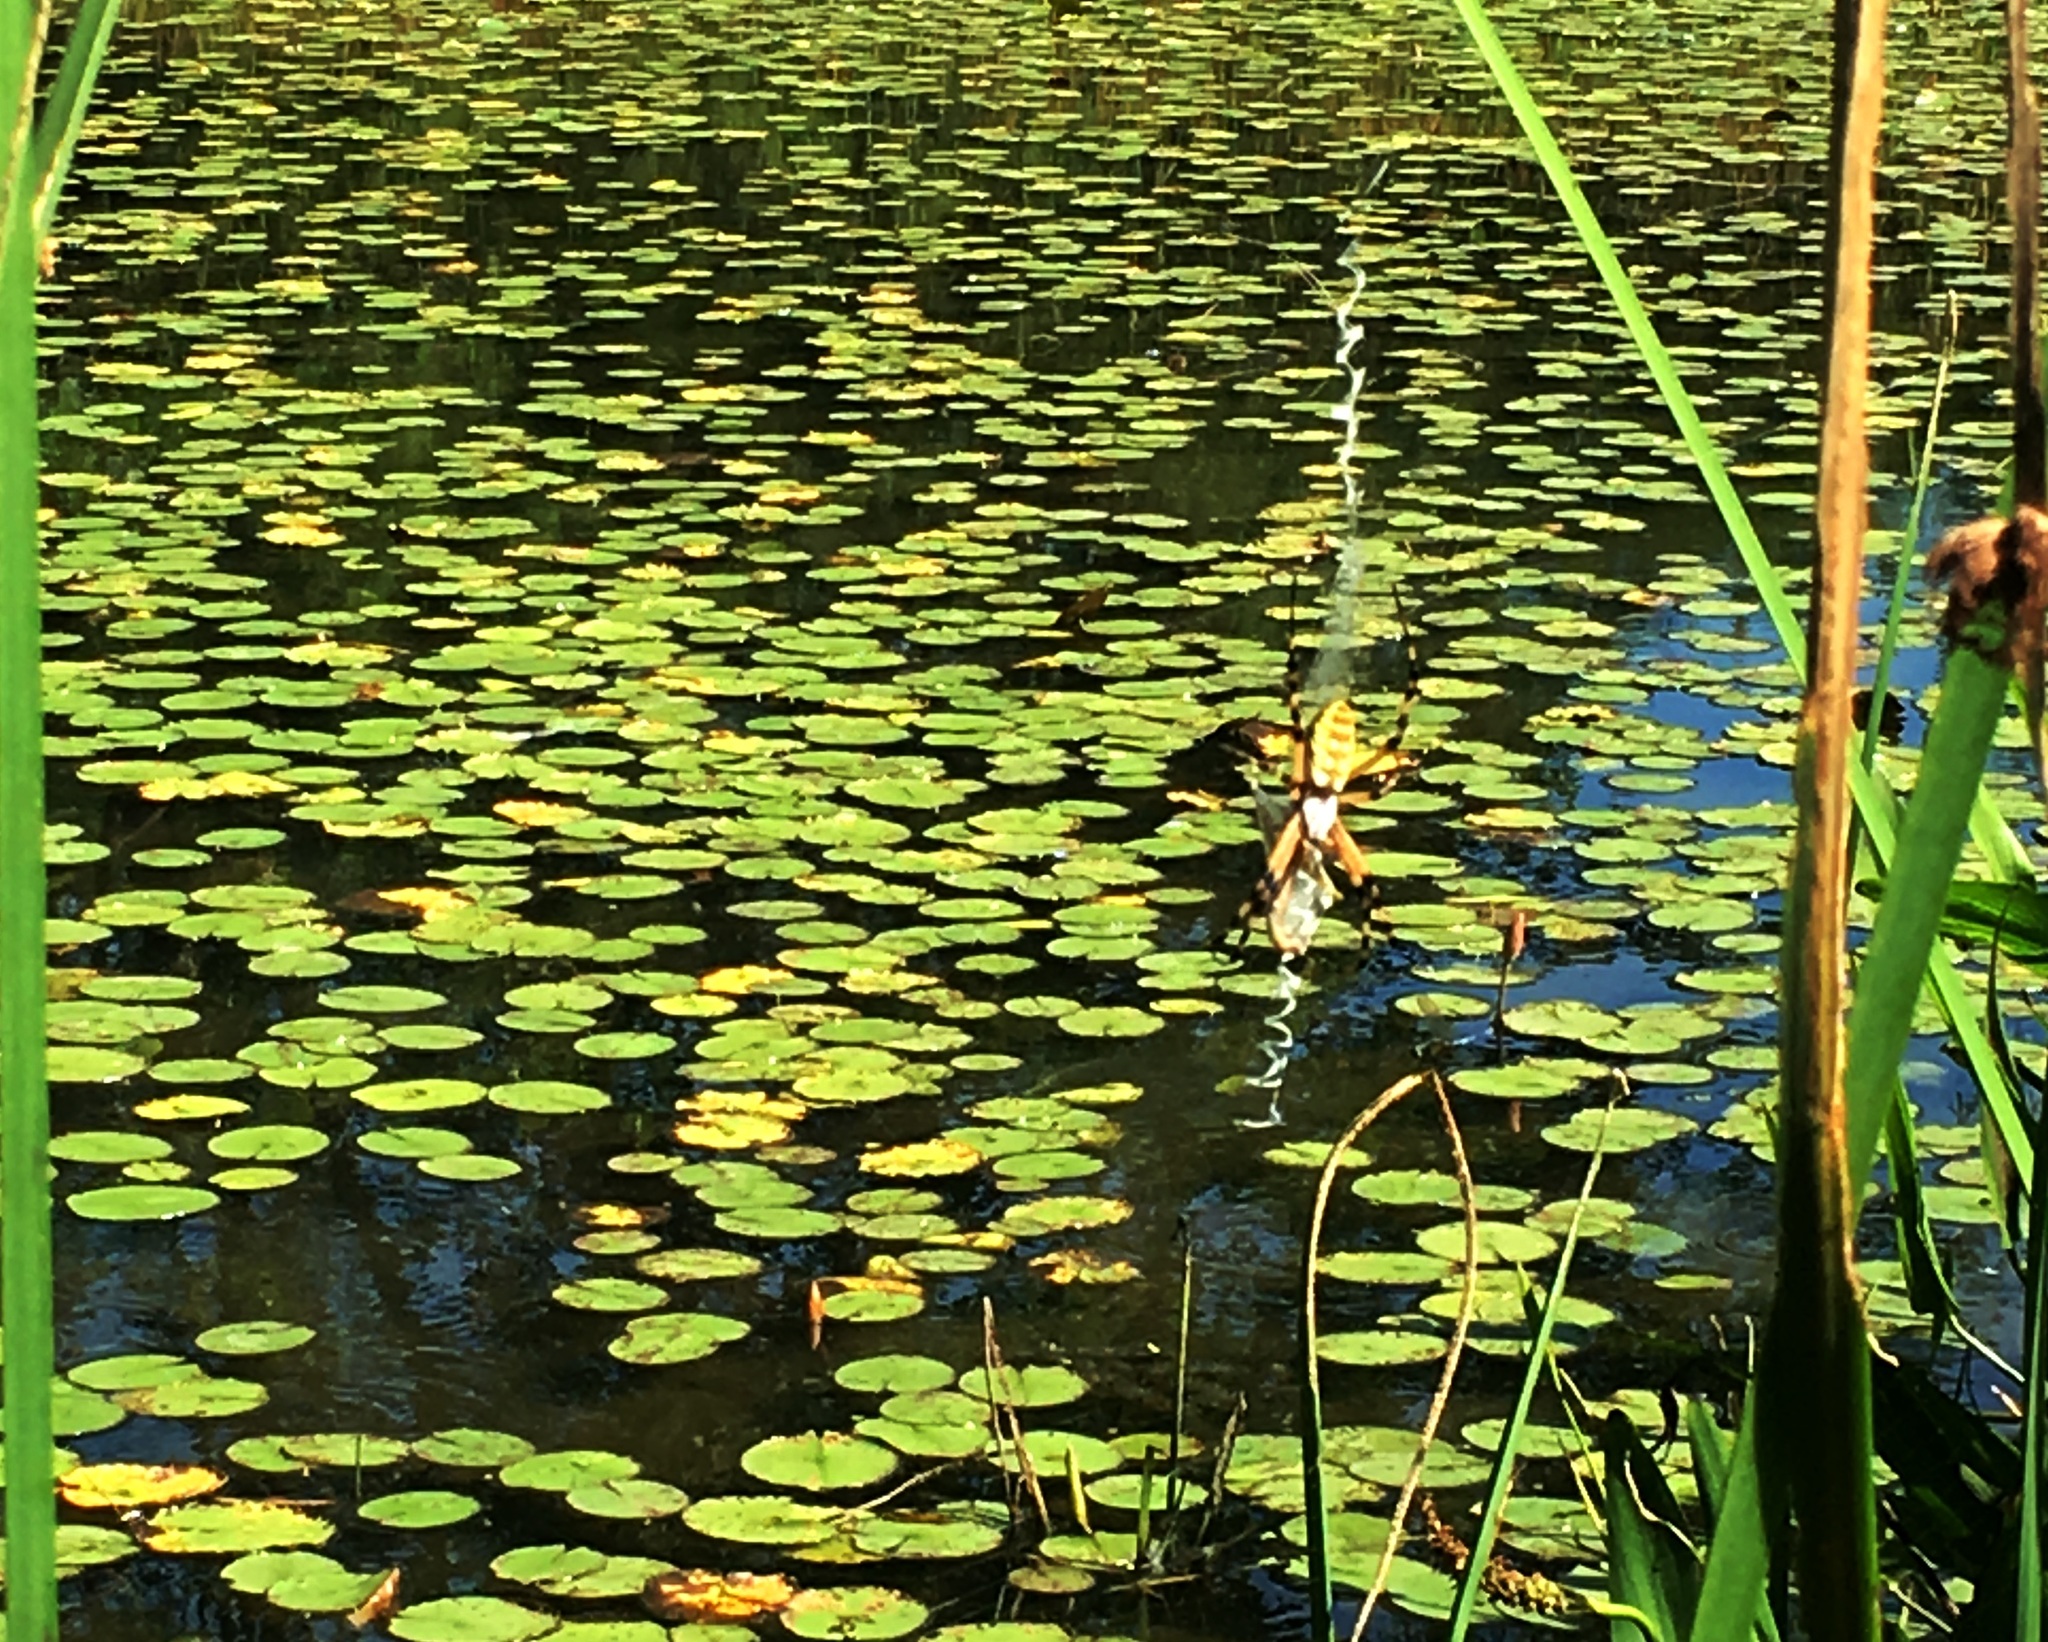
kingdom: Animalia
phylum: Arthropoda
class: Arachnida
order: Araneae
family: Araneidae
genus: Argiope
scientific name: Argiope aurantia
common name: Orb weavers
